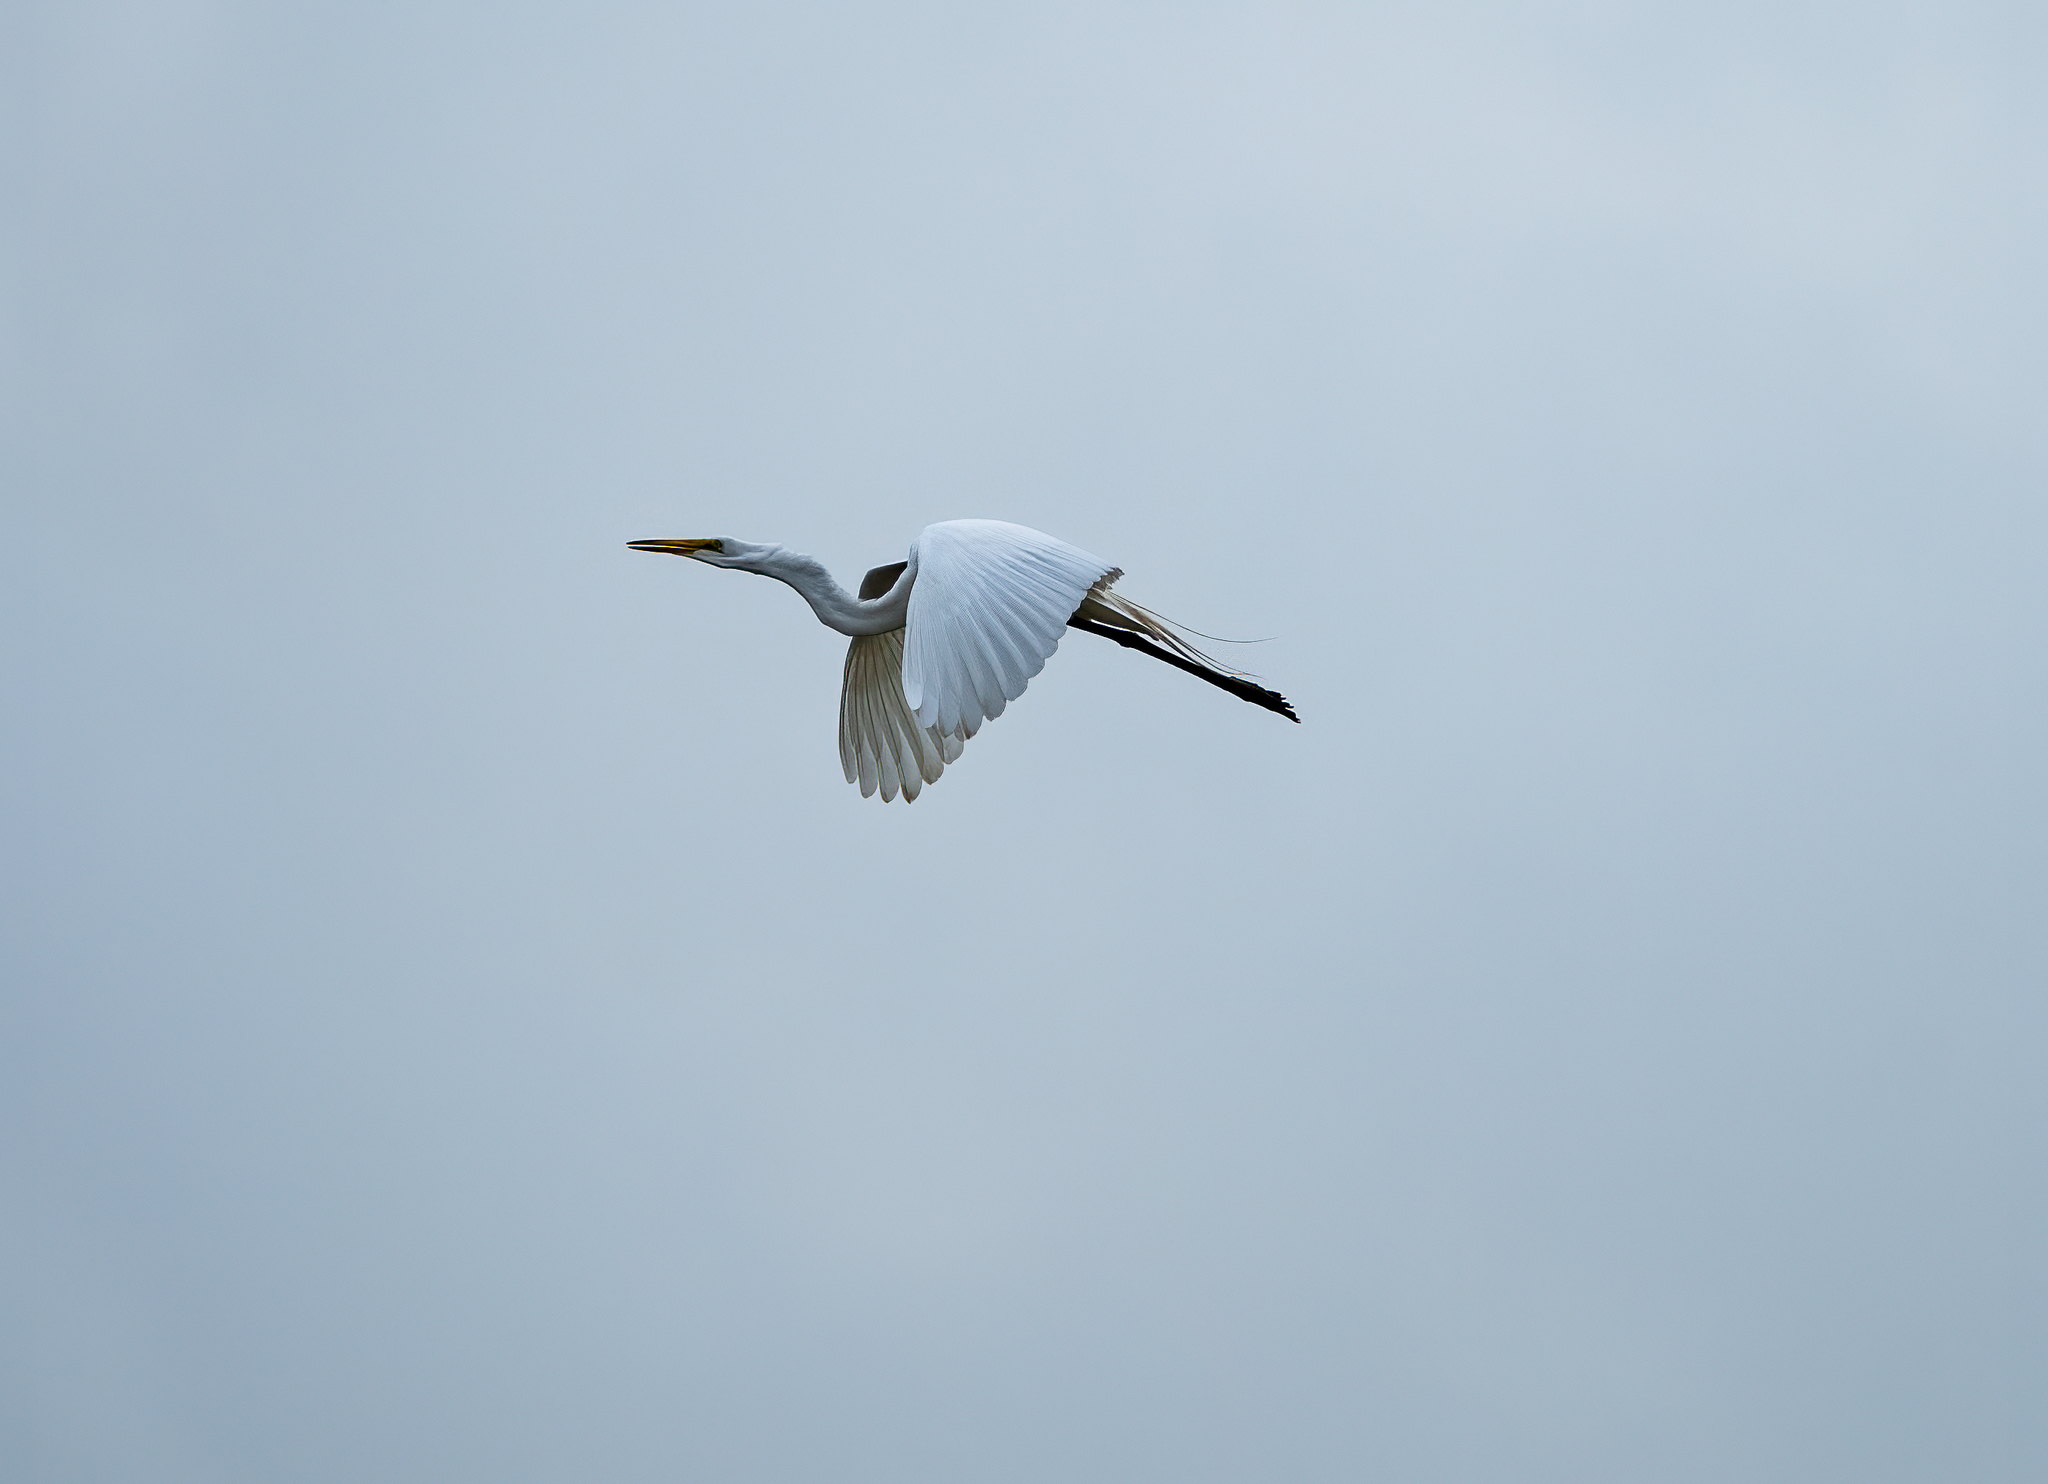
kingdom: Animalia
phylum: Chordata
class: Aves
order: Pelecaniformes
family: Ardeidae
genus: Ardea
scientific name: Ardea alba
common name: Great egret
